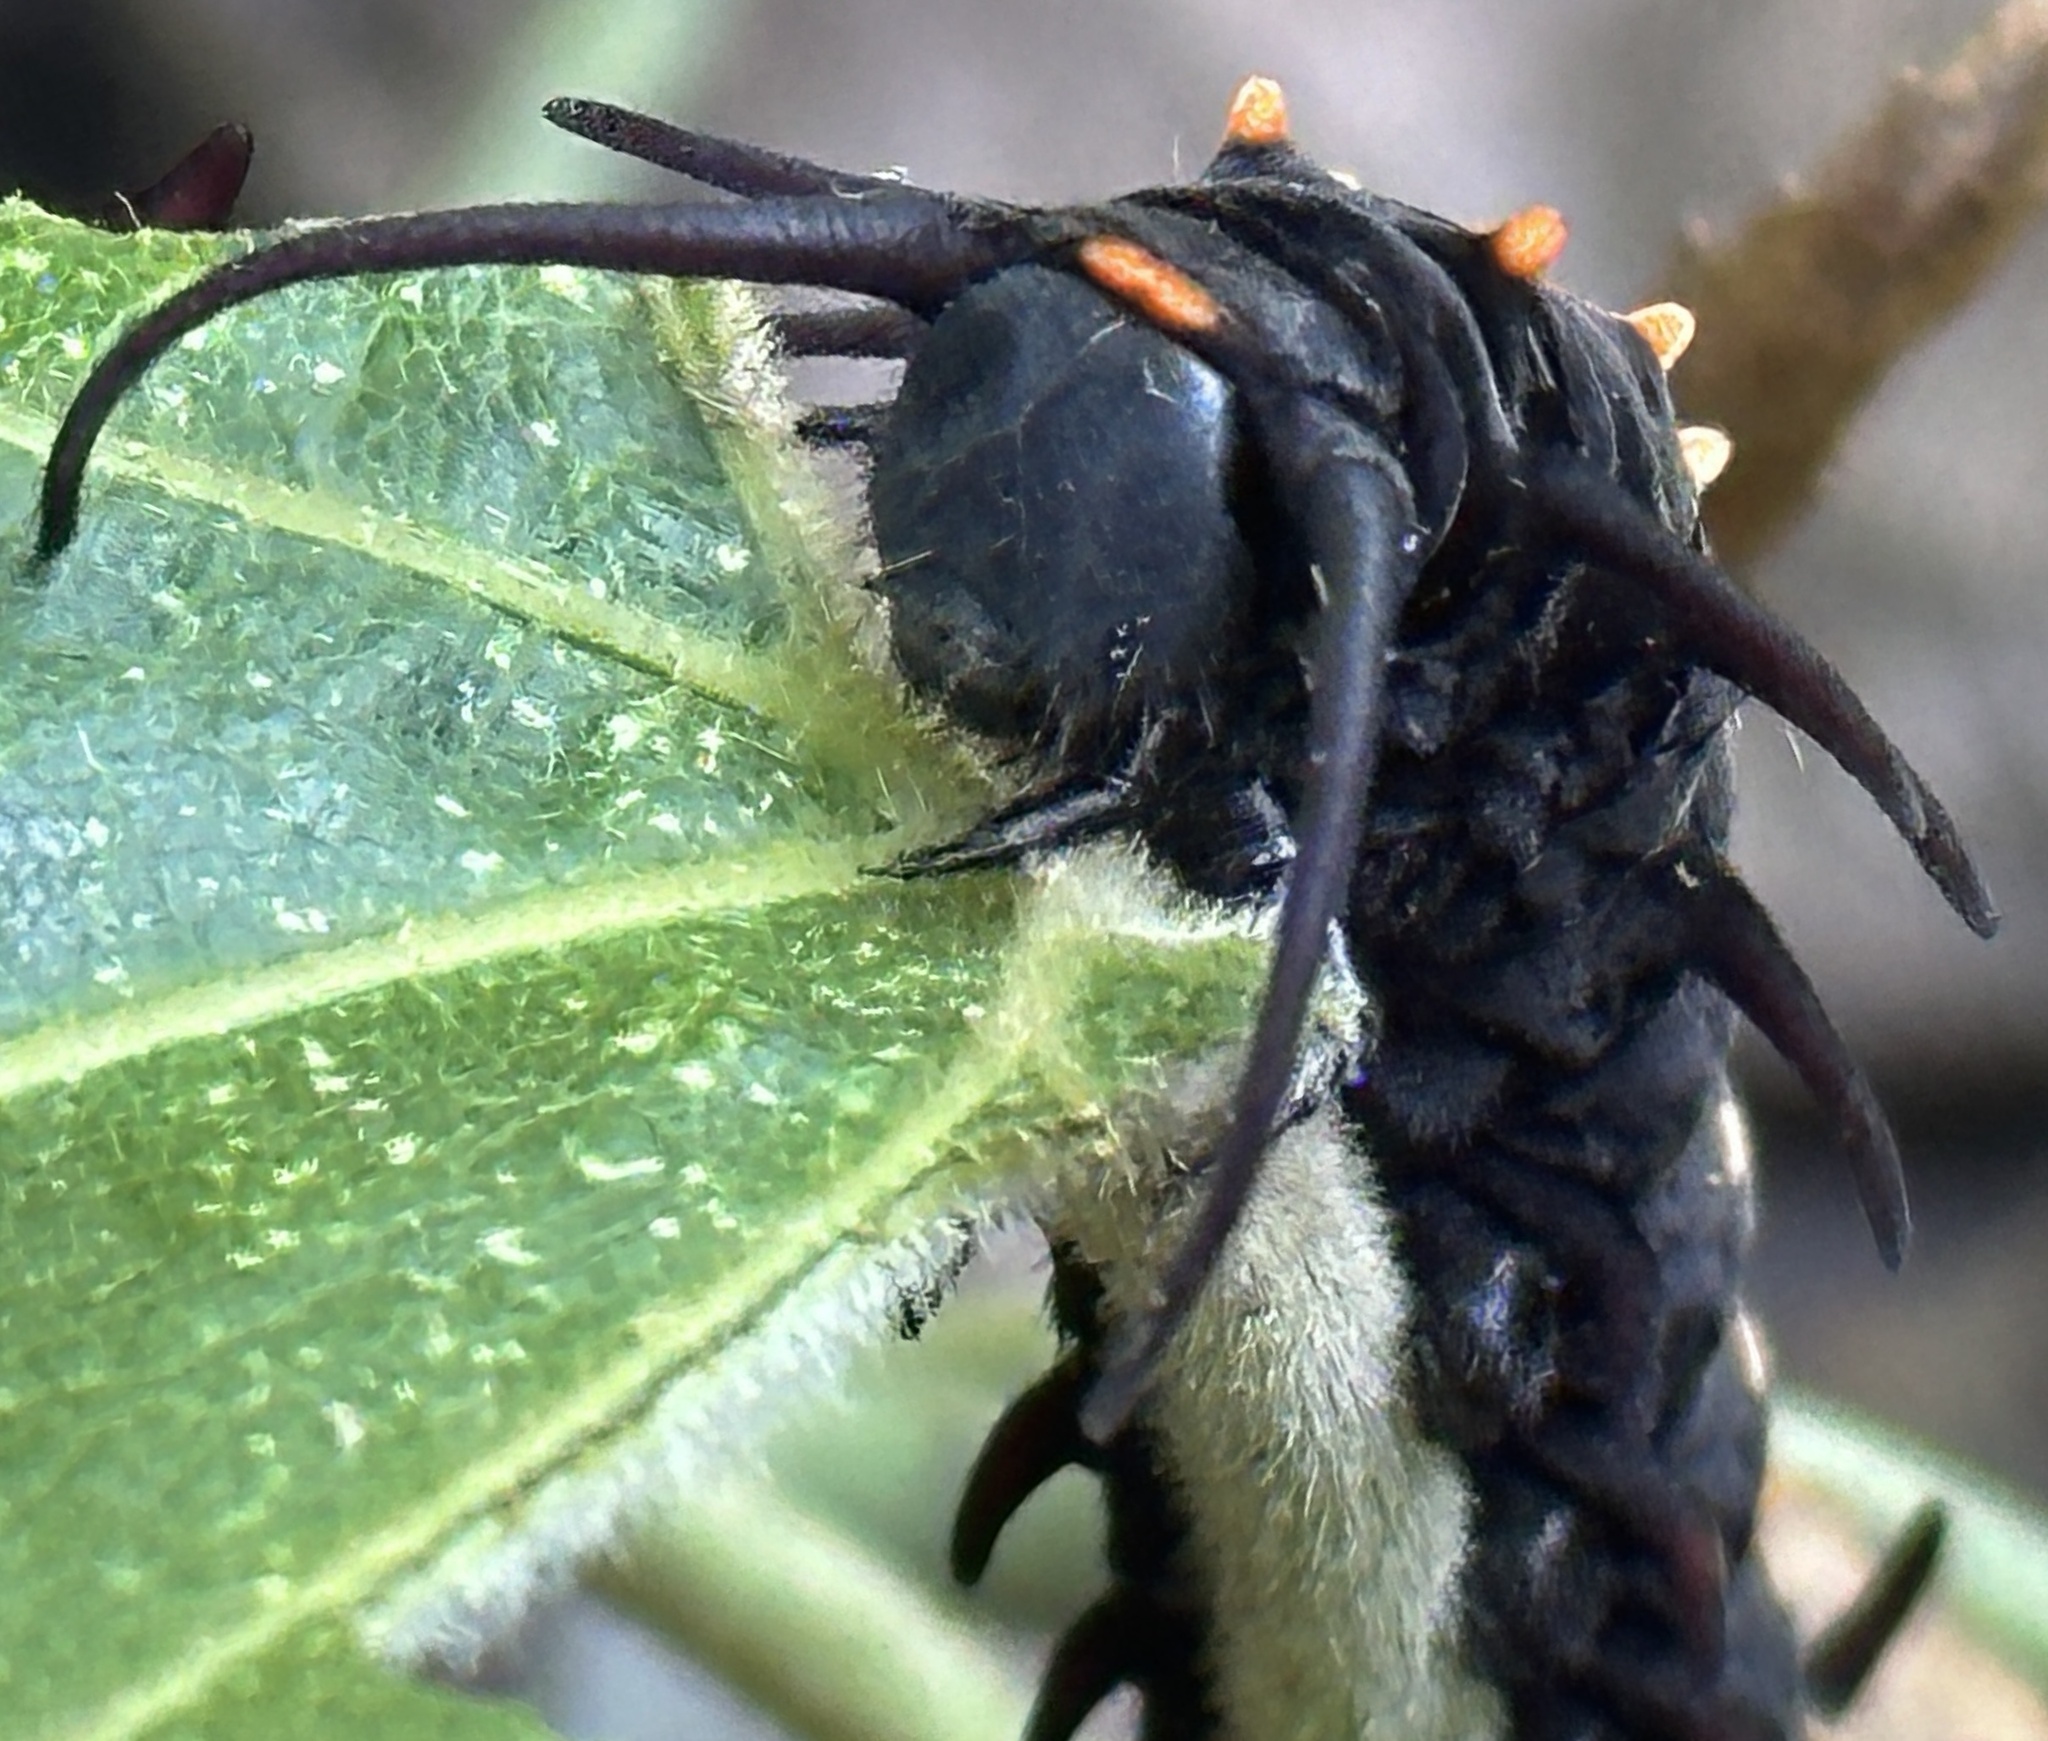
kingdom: Animalia
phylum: Arthropoda
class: Insecta
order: Lepidoptera
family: Papilionidae
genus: Battus
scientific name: Battus philenor
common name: Pipevine swallowtail
